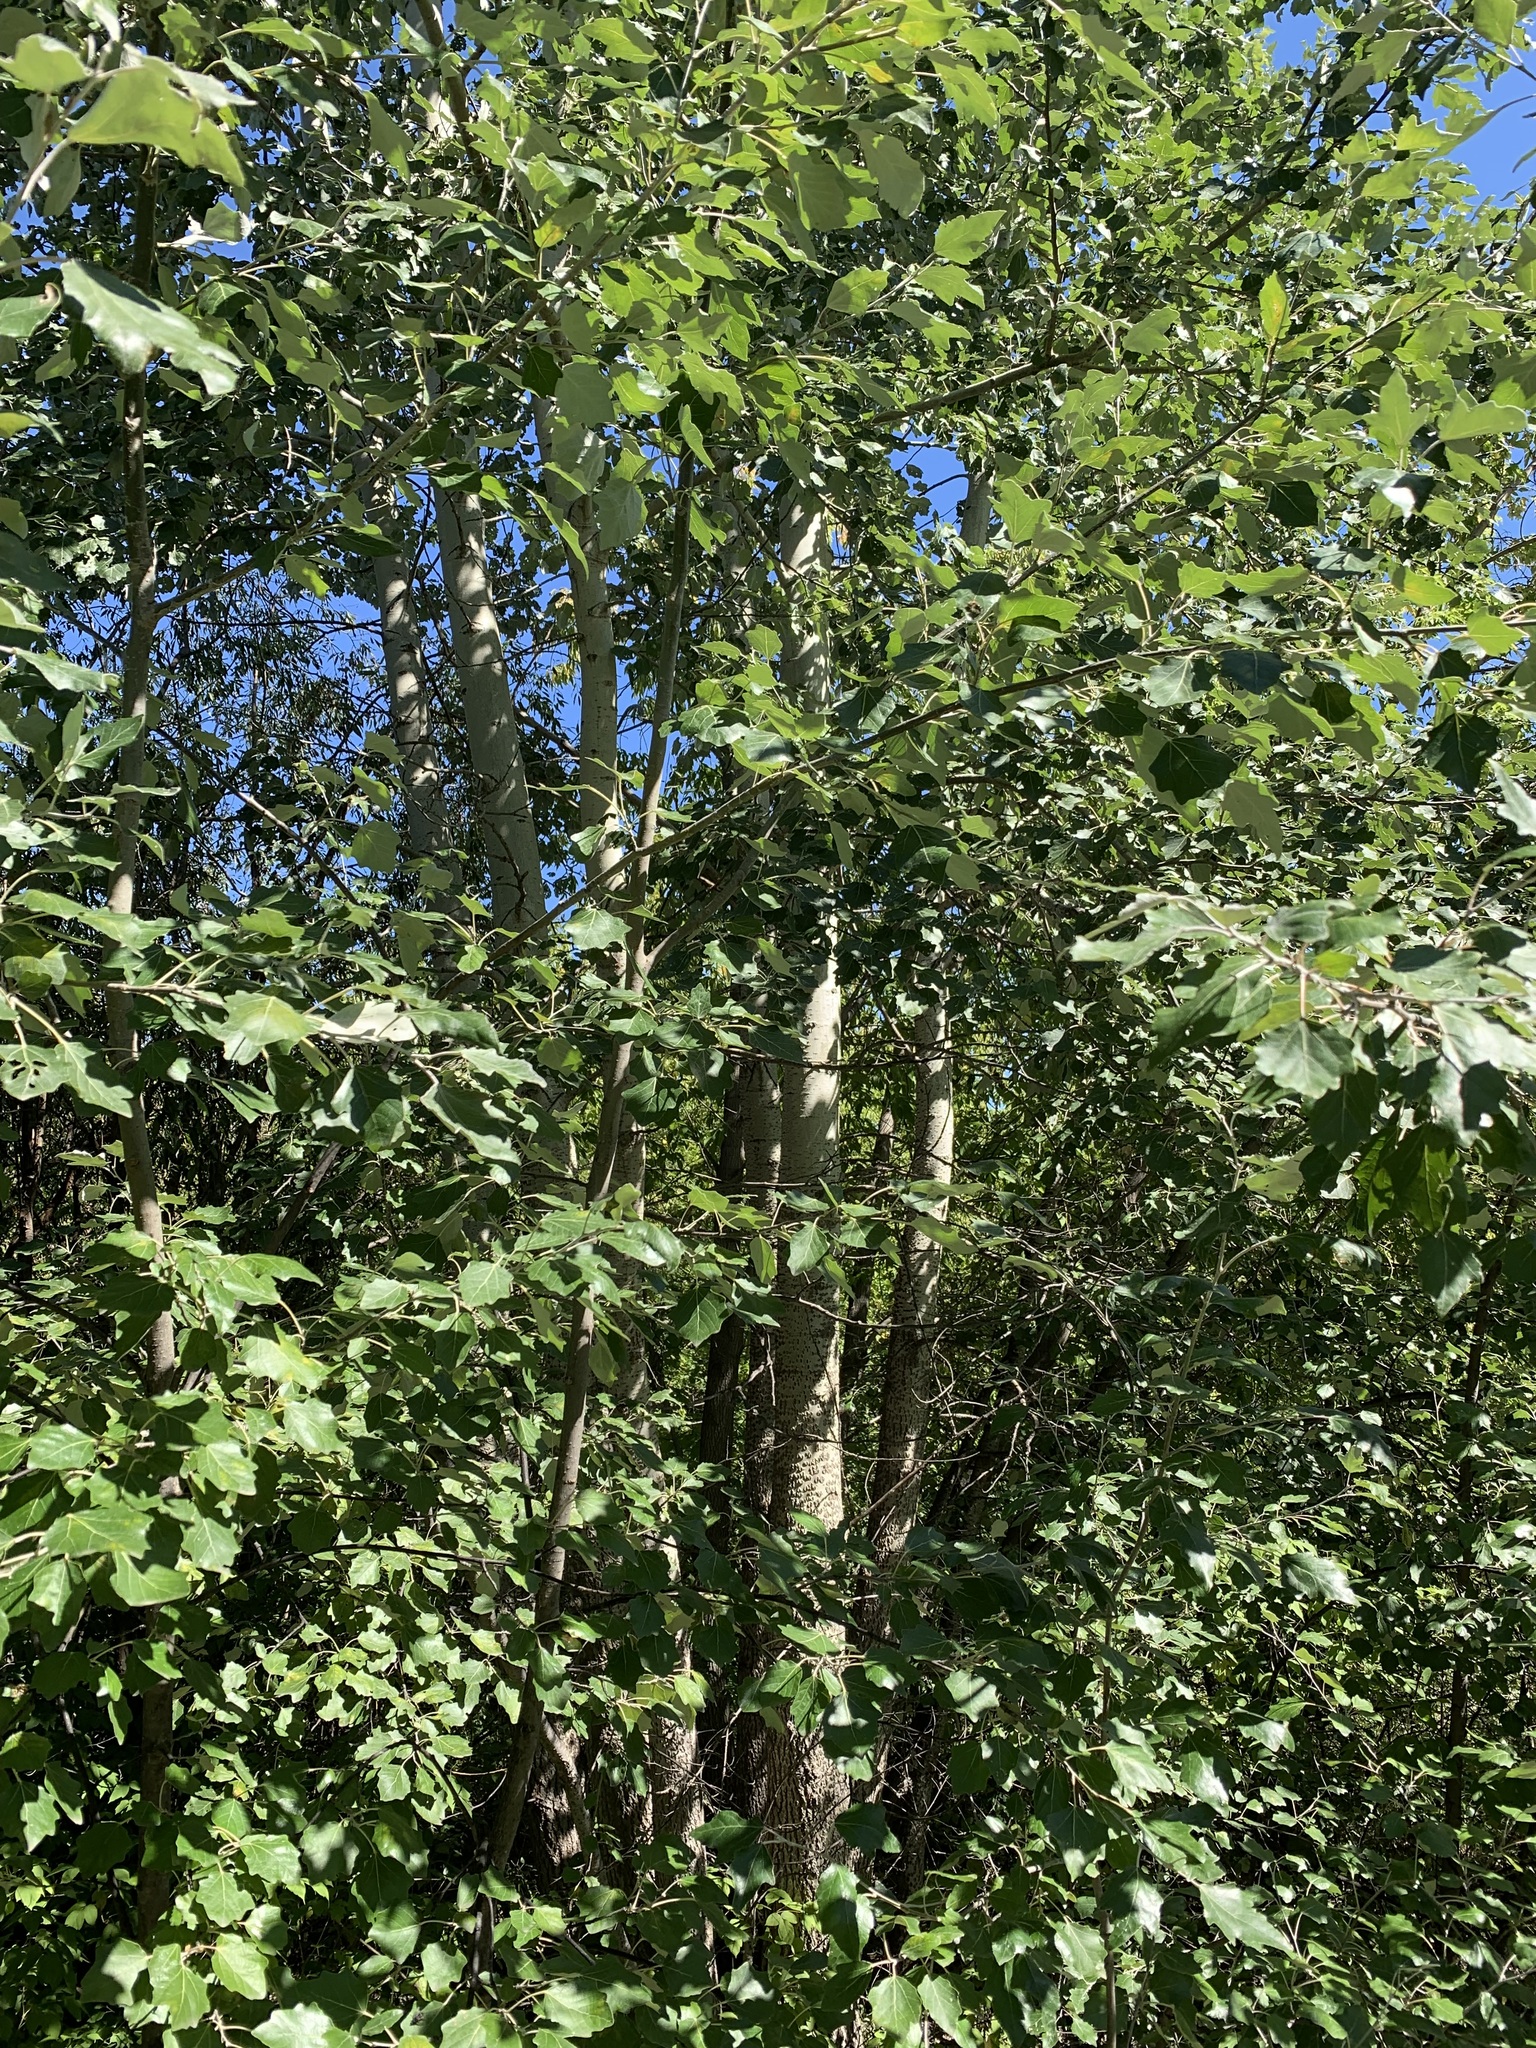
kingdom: Plantae
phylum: Tracheophyta
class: Magnoliopsida
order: Malpighiales
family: Salicaceae
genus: Populus
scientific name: Populus alba
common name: White poplar
